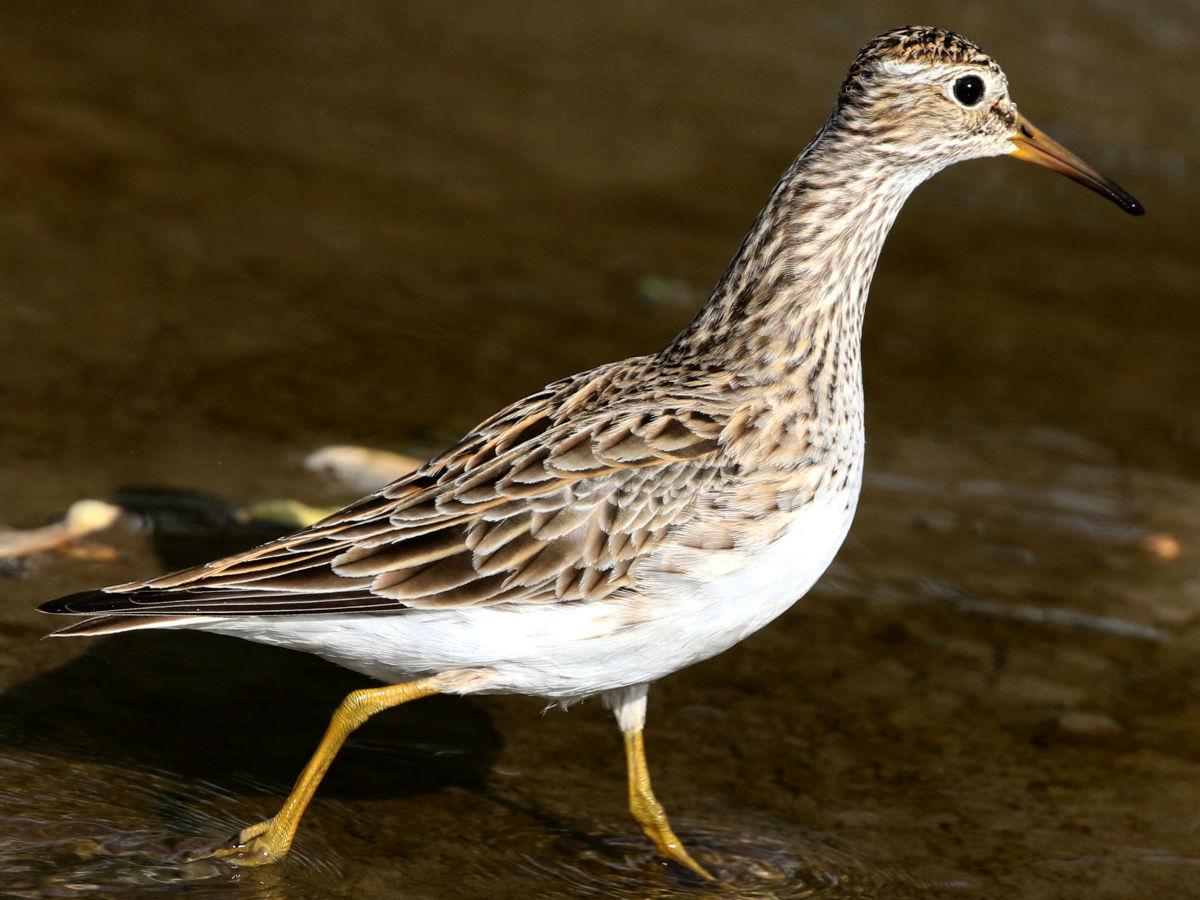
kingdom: Animalia
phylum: Chordata
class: Aves
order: Charadriiformes
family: Scolopacidae
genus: Calidris
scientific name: Calidris melanotos
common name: Pectoral sandpiper
